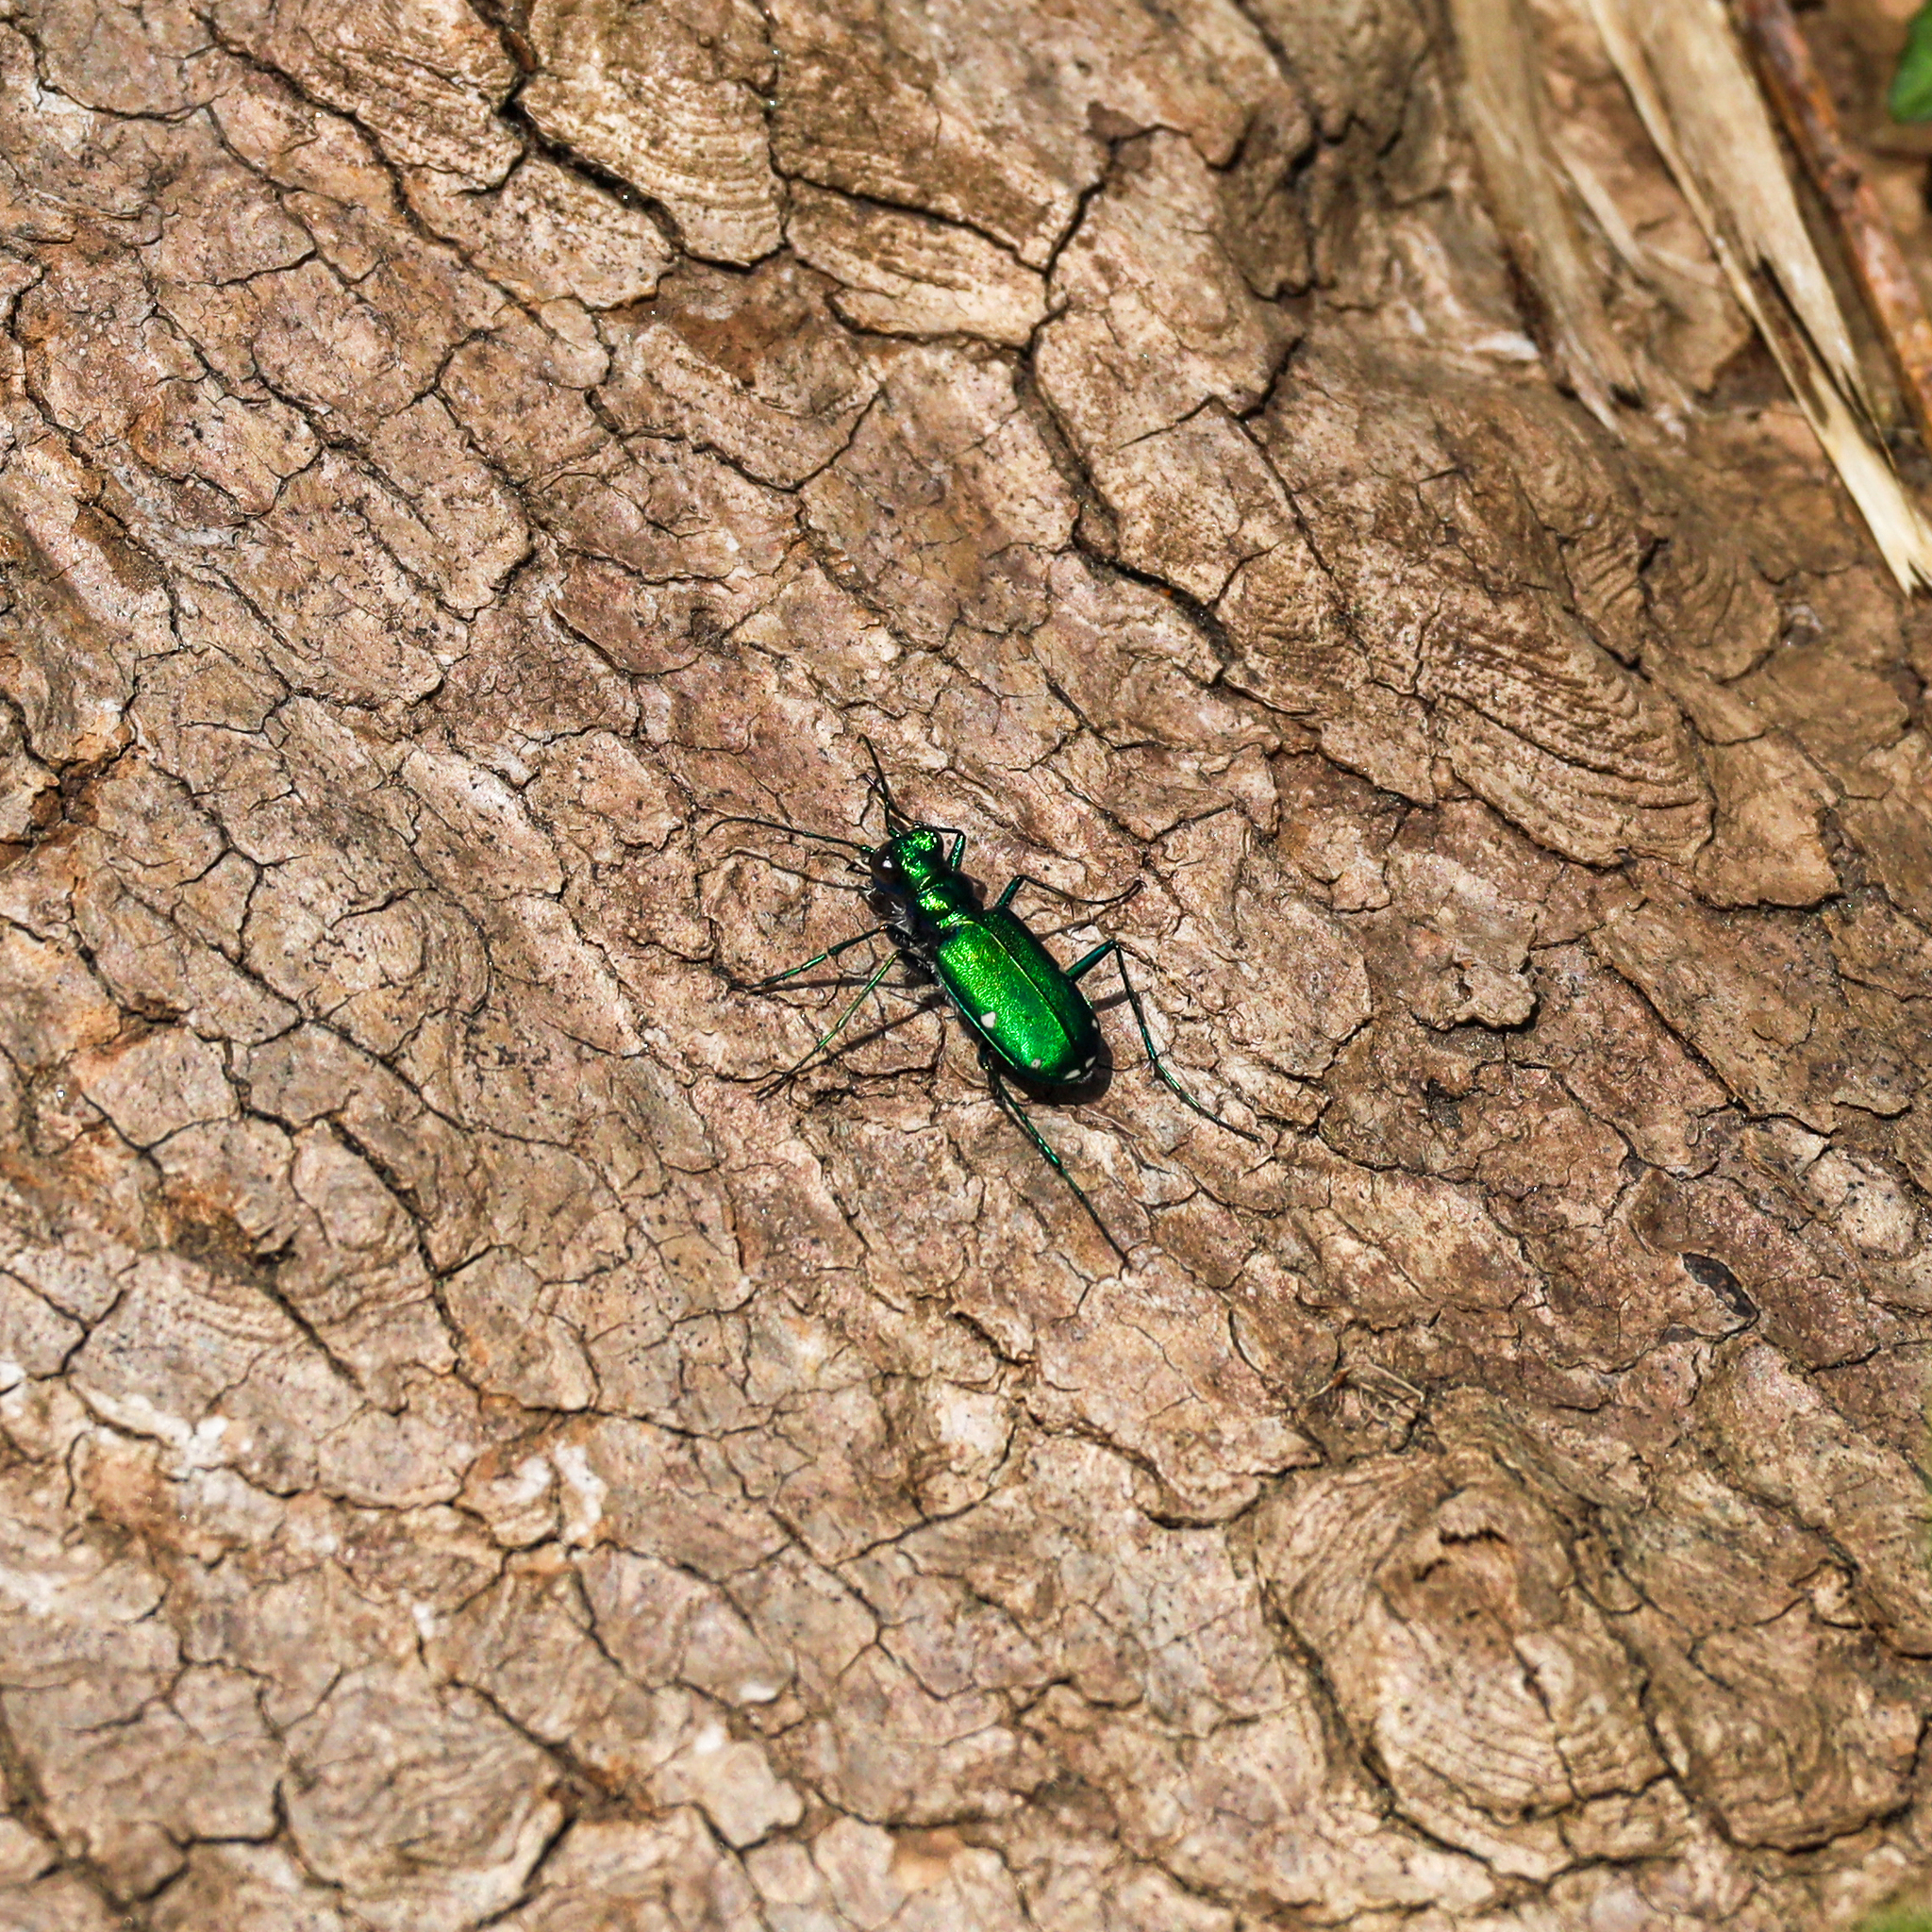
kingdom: Animalia
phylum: Arthropoda
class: Insecta
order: Coleoptera
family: Carabidae
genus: Cicindela
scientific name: Cicindela sexguttata
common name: Six-spotted tiger beetle
